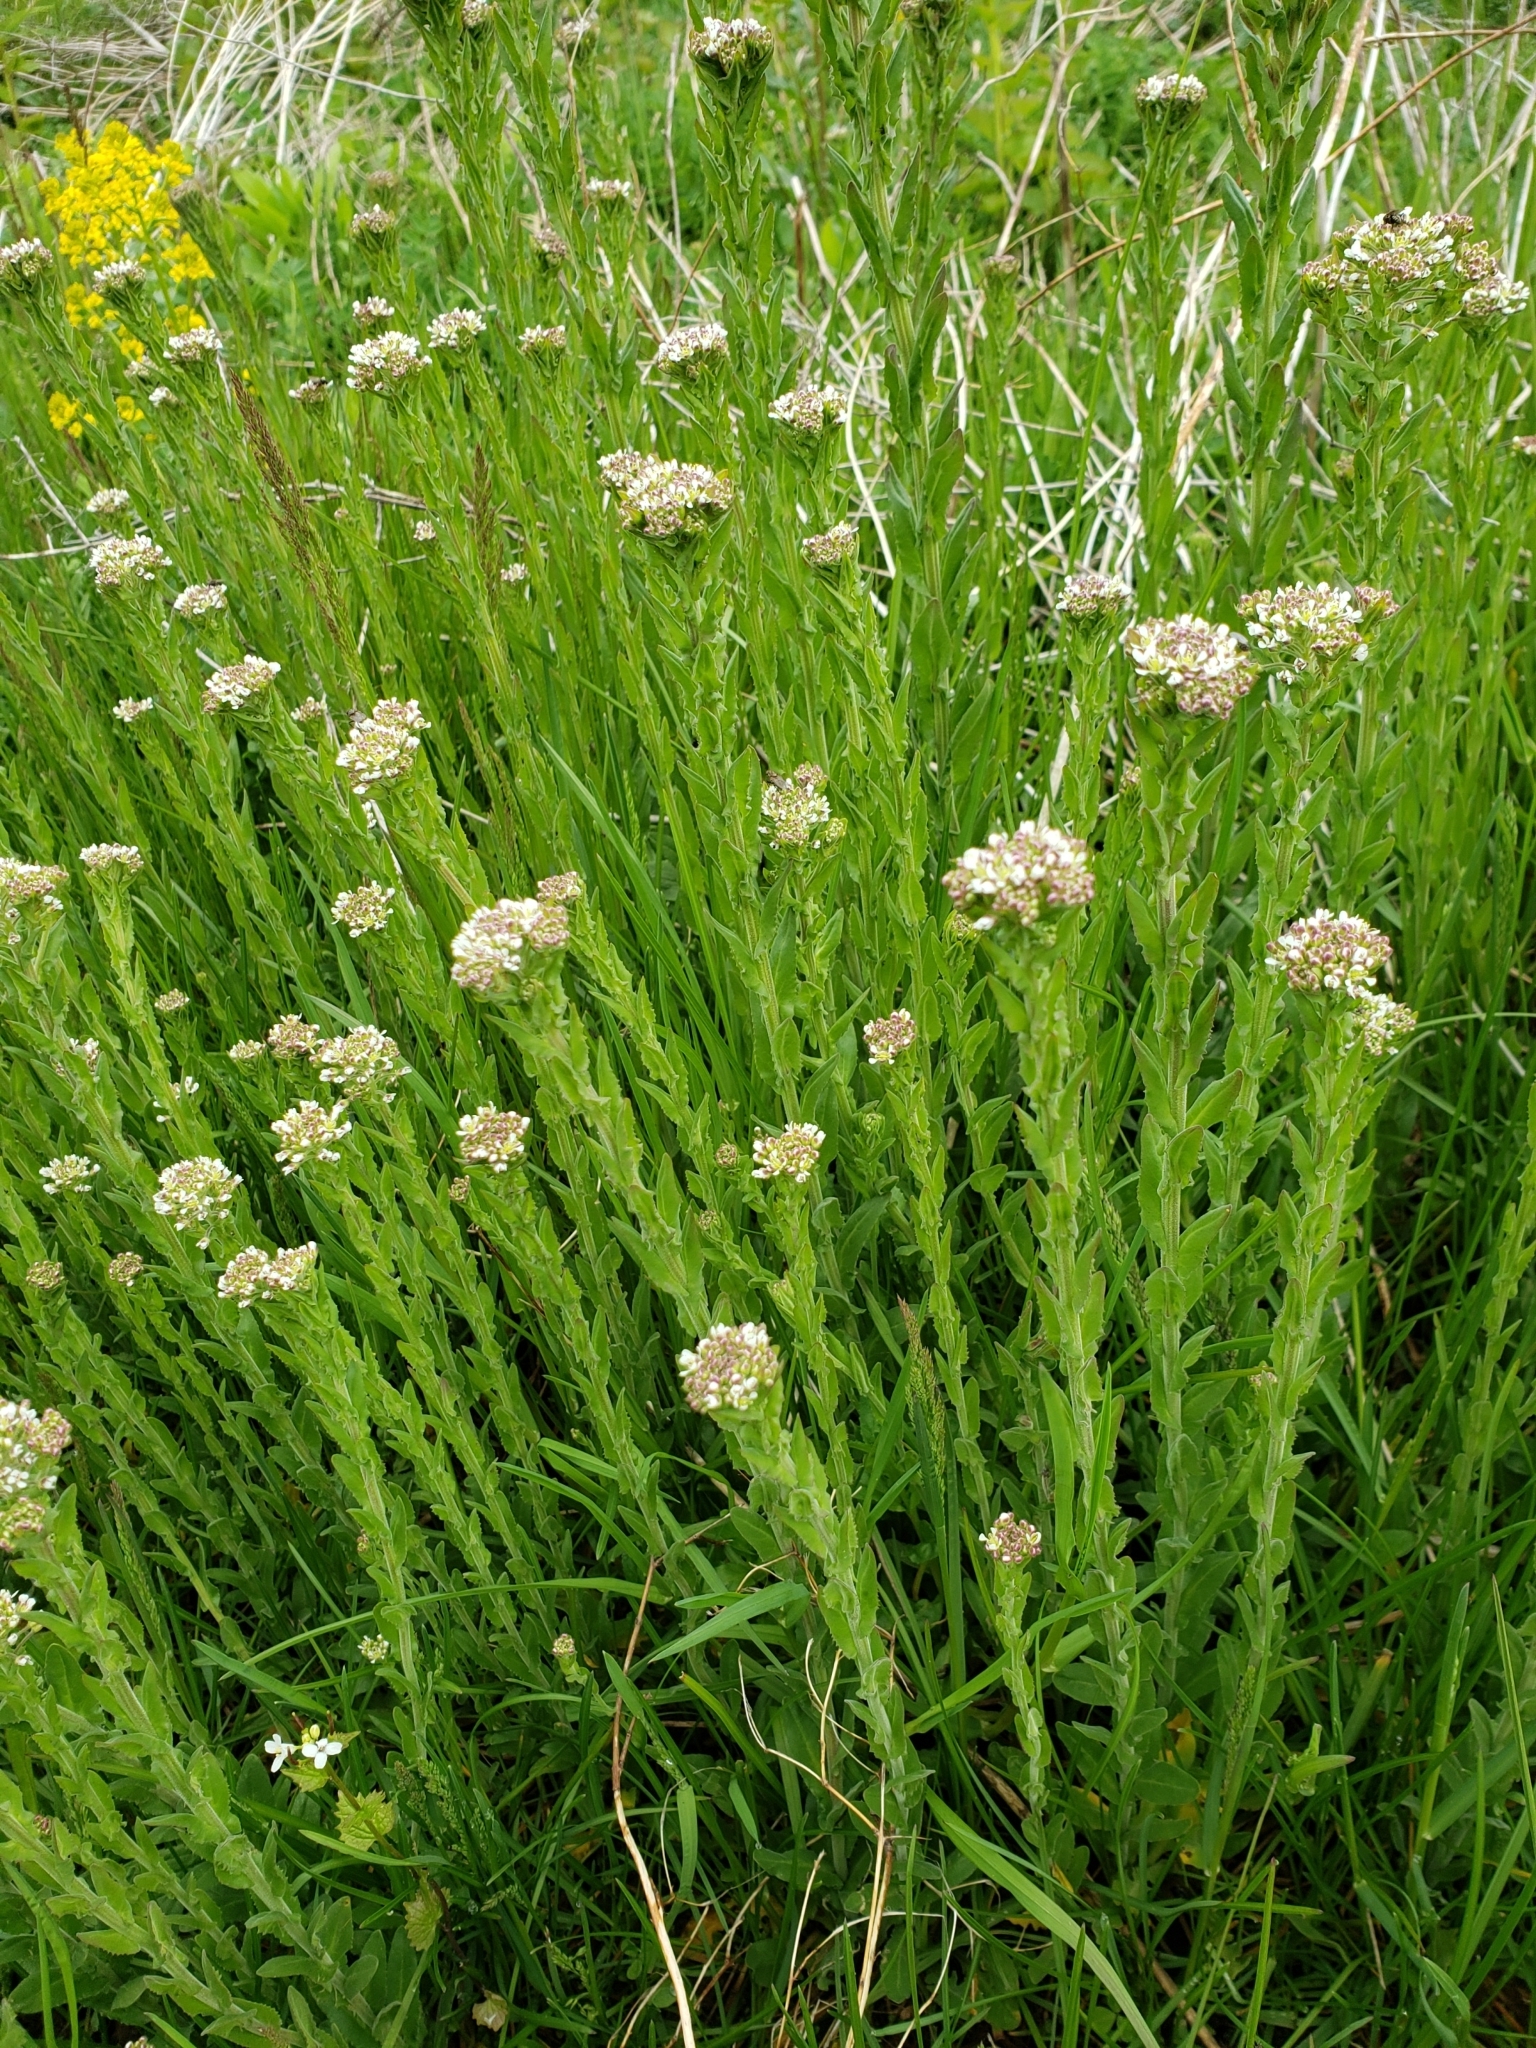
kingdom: Plantae
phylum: Tracheophyta
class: Magnoliopsida
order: Brassicales
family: Brassicaceae
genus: Lepidium
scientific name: Lepidium campestre
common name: Field pepperwort
